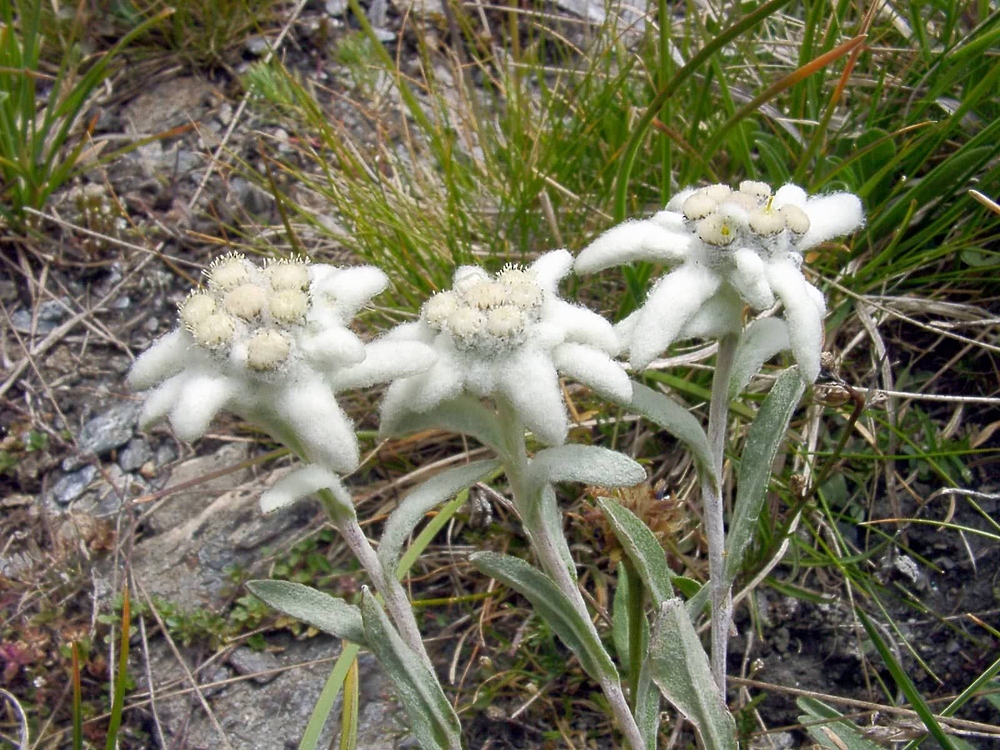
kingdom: Plantae
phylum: Tracheophyta
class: Magnoliopsida
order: Asterales
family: Asteraceae
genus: Leontopodium
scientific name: Leontopodium nivale
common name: Edelweiss
